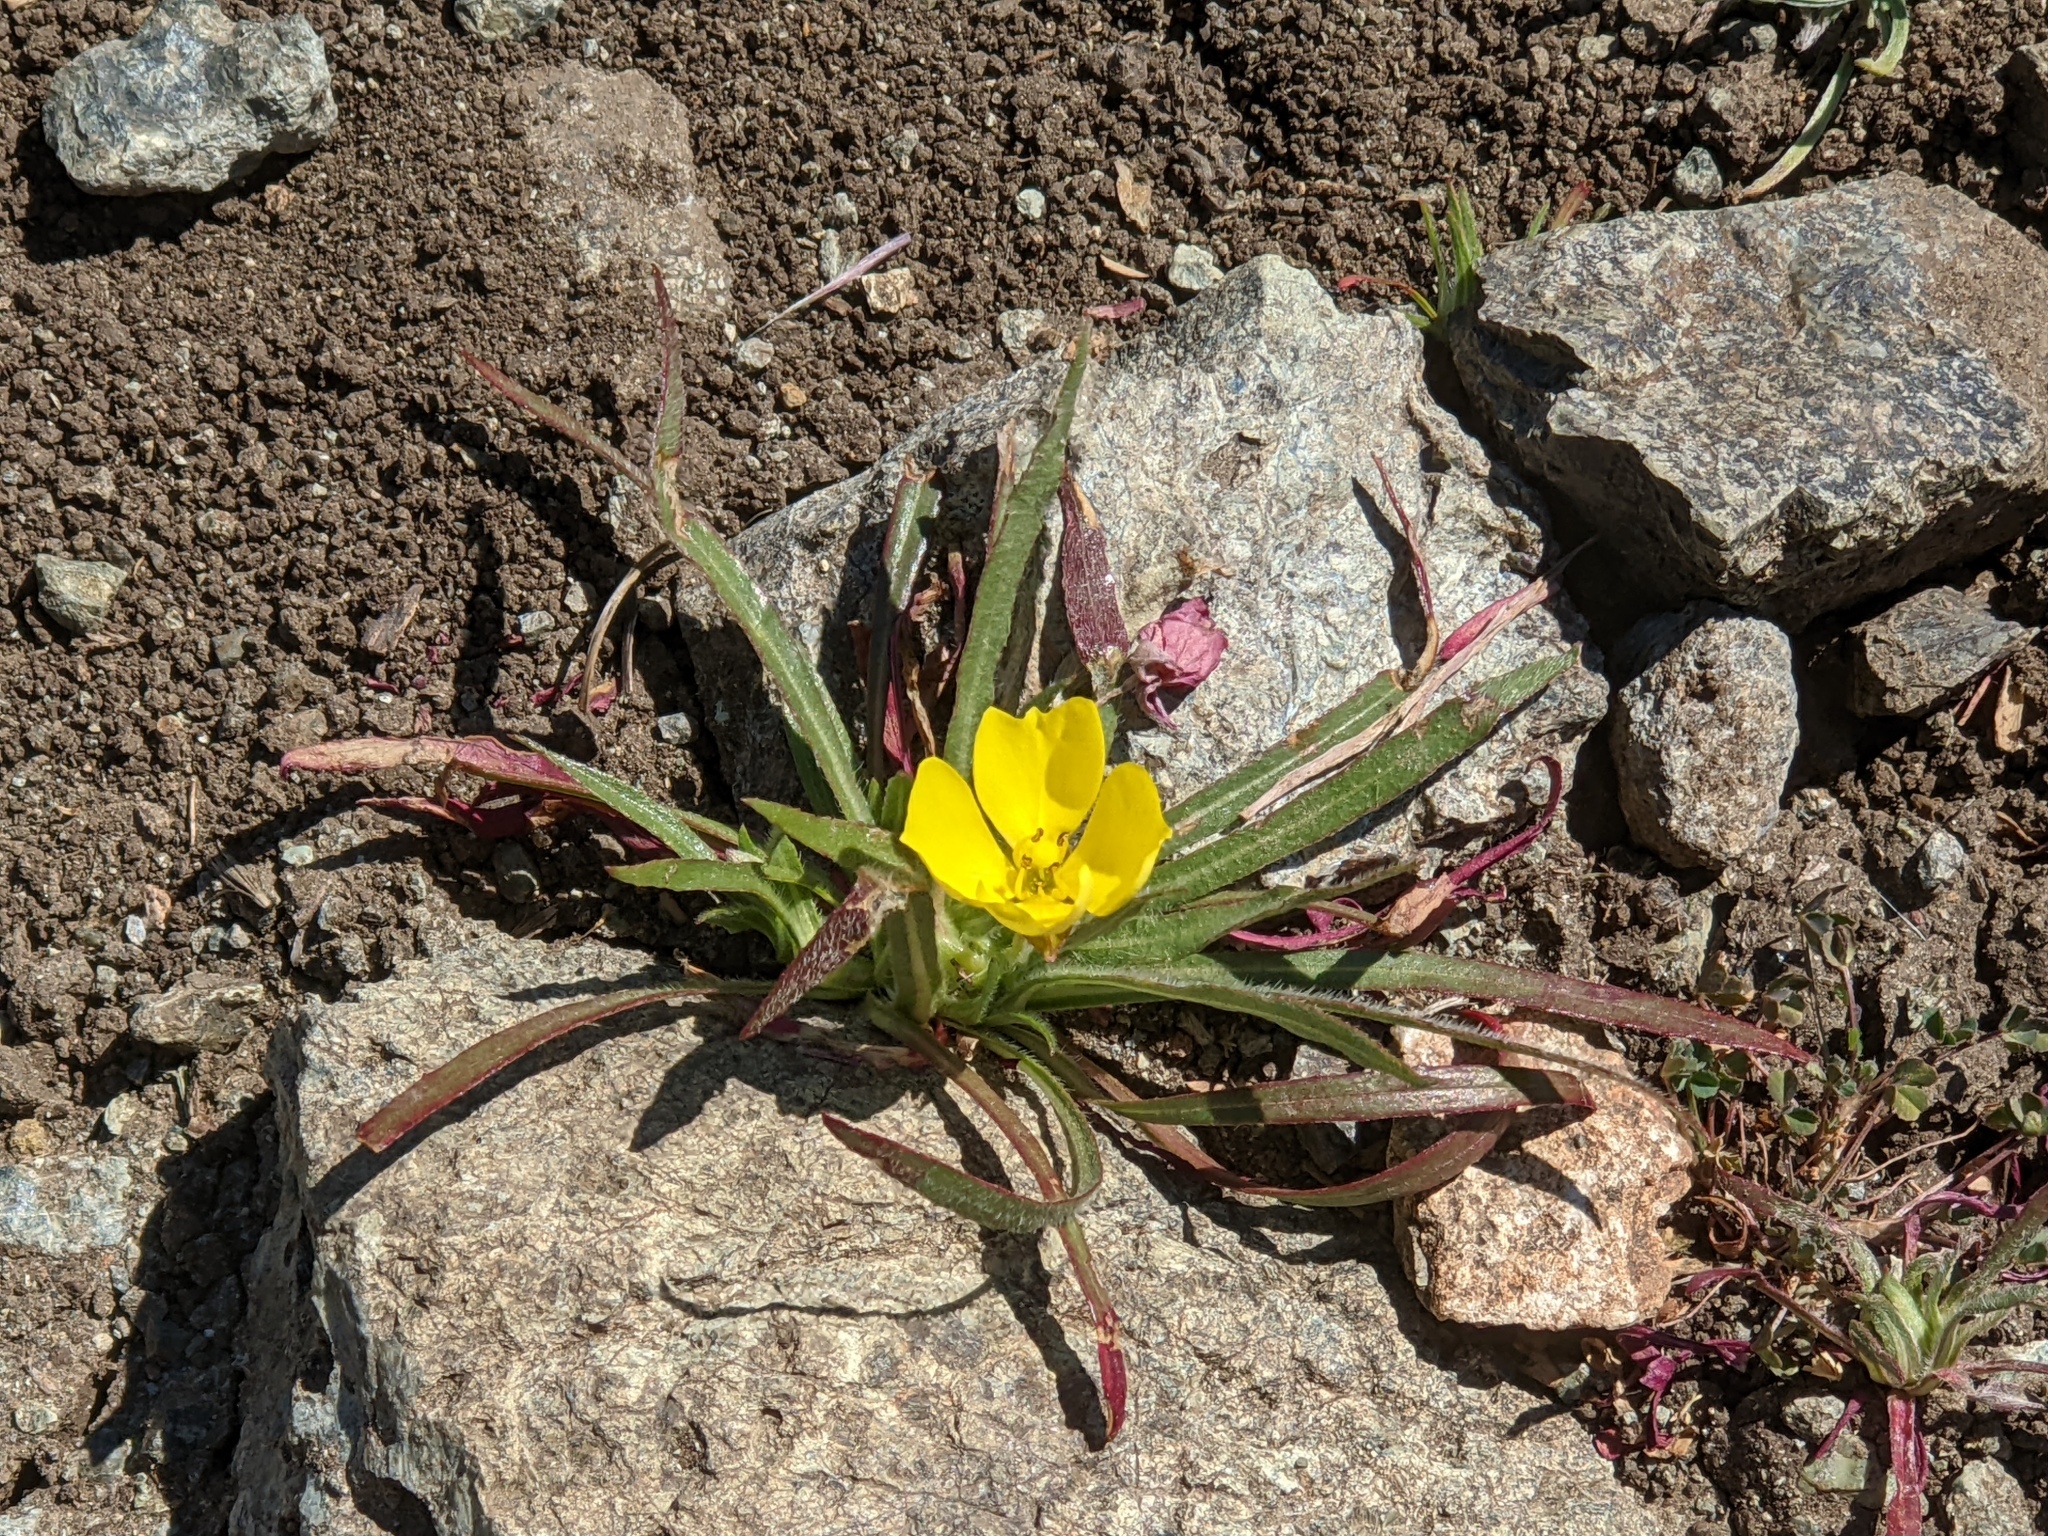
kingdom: Plantae
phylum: Tracheophyta
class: Magnoliopsida
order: Myrtales
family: Onagraceae
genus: Tetrapteron
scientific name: Tetrapteron graciliflorum
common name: Hill suncup
